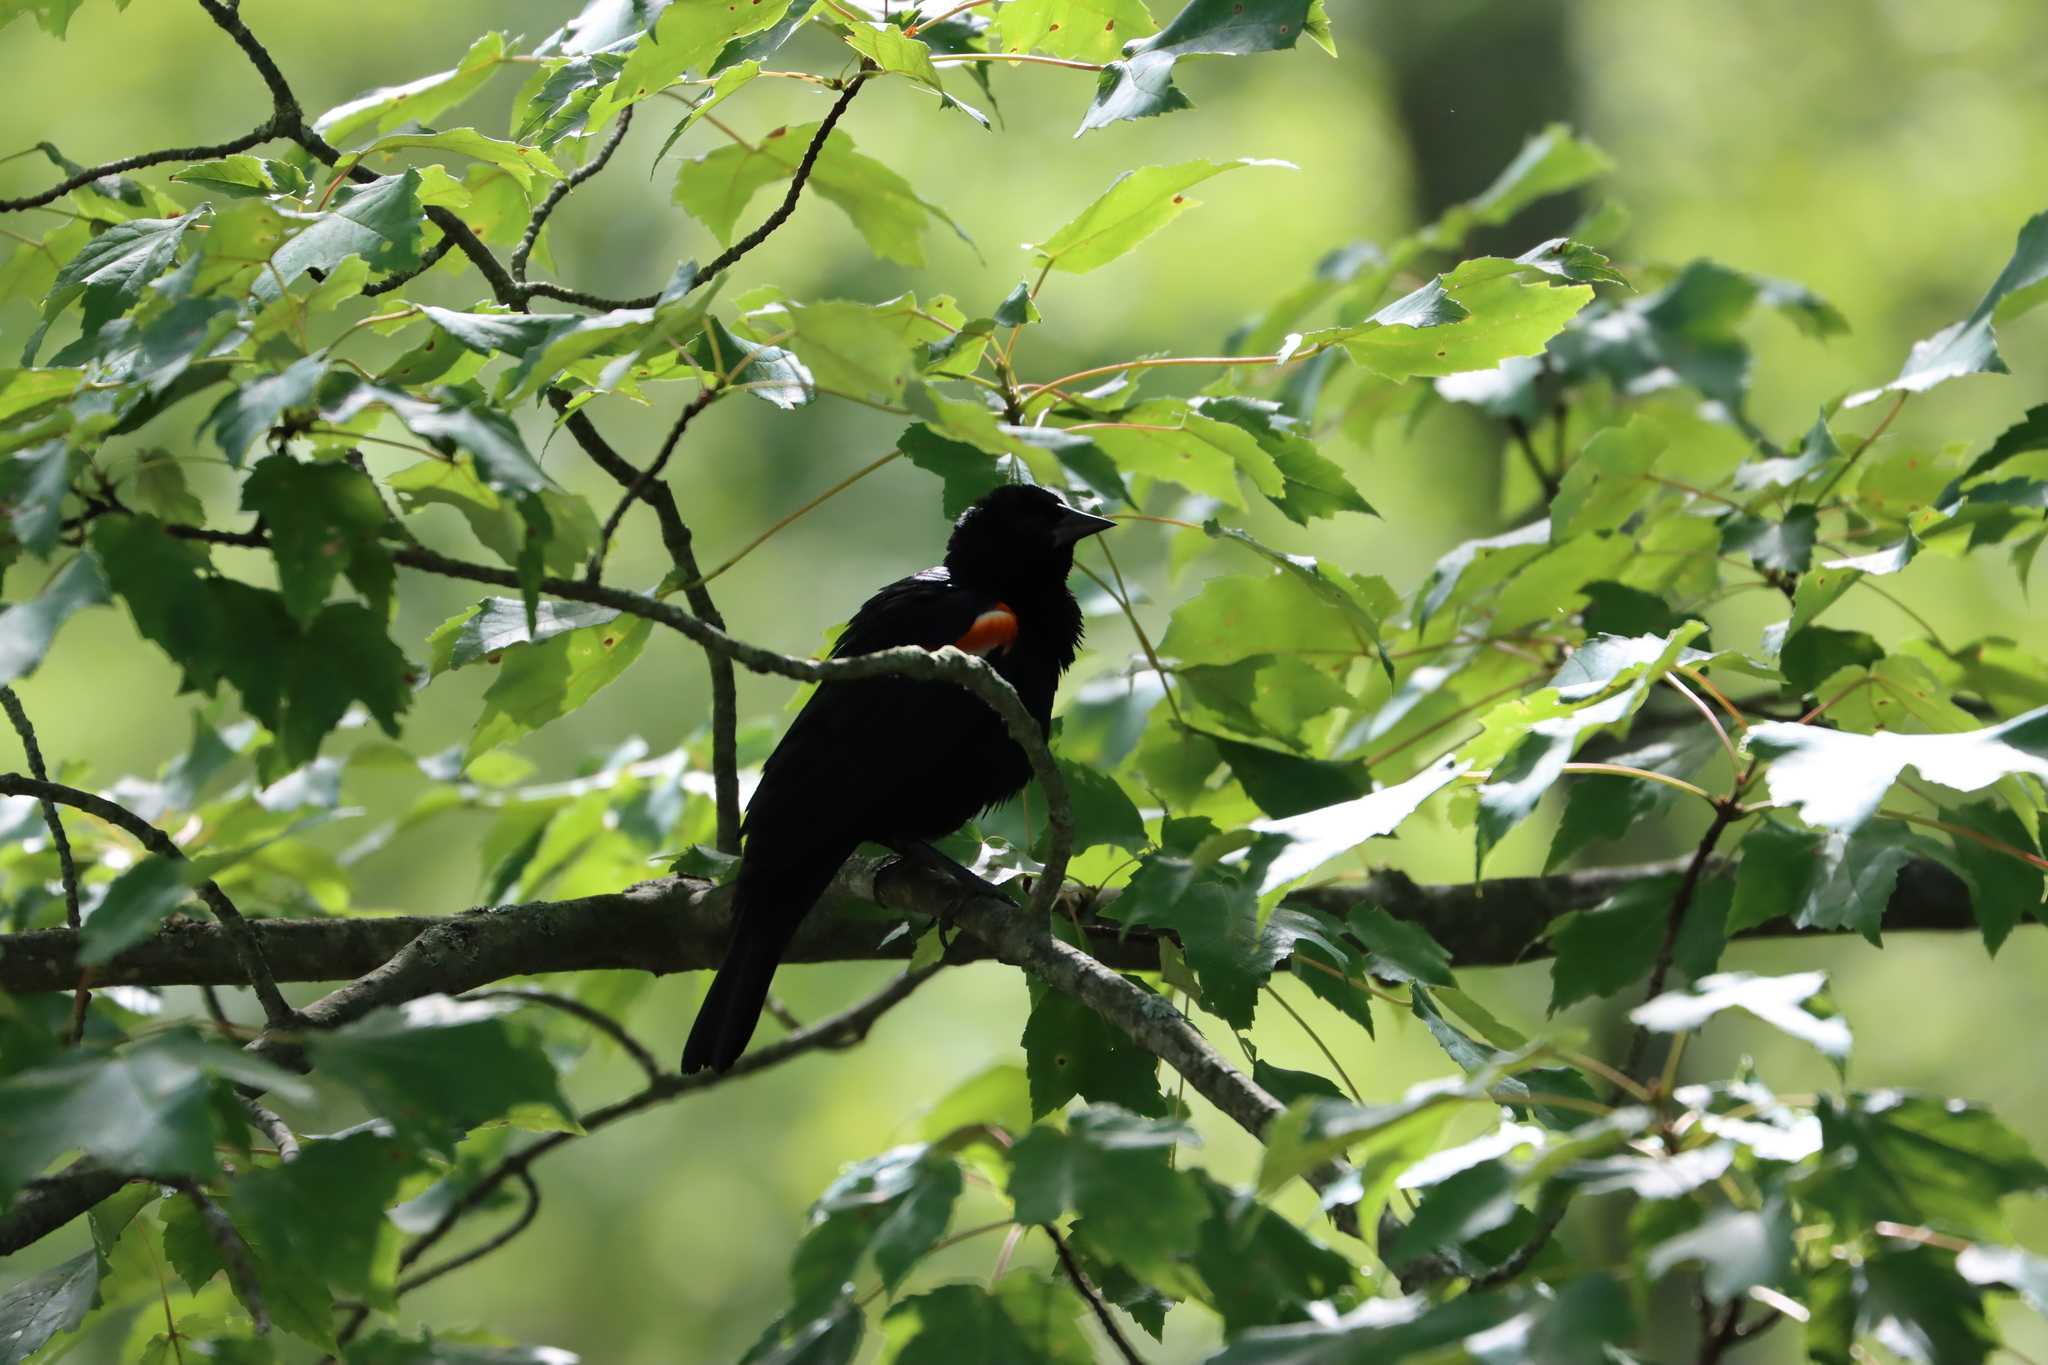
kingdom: Animalia
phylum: Chordata
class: Aves
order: Passeriformes
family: Icteridae
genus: Agelaius
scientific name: Agelaius phoeniceus
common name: Red-winged blackbird
